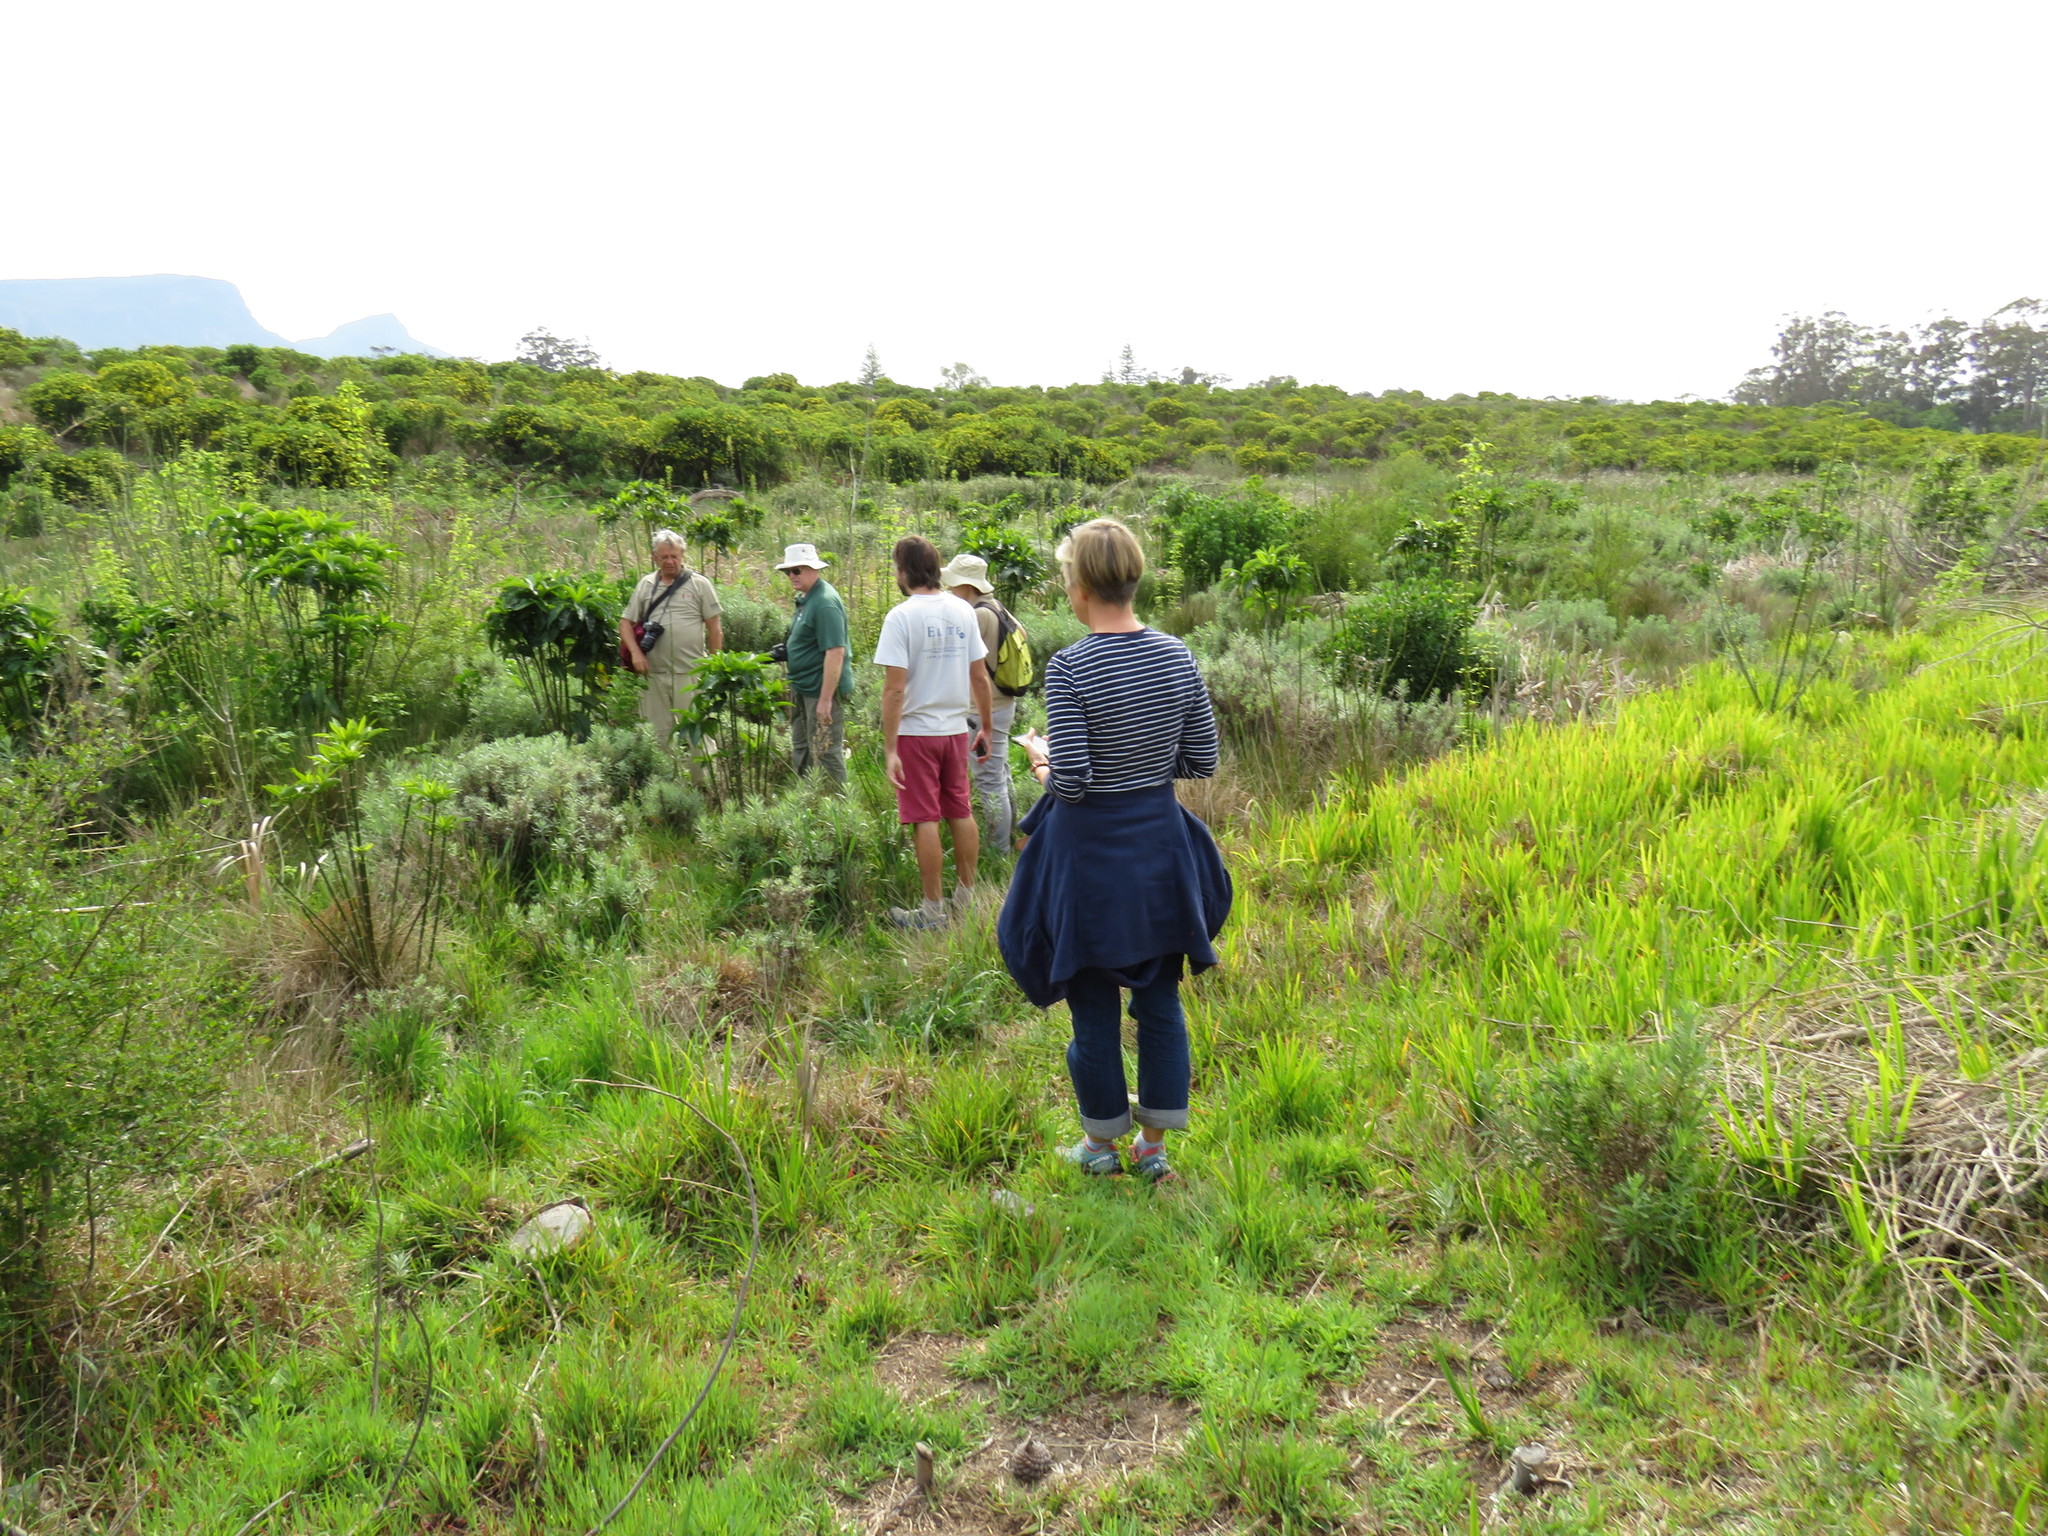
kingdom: Plantae
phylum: Tracheophyta
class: Magnoliopsida
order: Sapindales
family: Sapindaceae
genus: Acer
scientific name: Acer negundo
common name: Ashleaf maple
